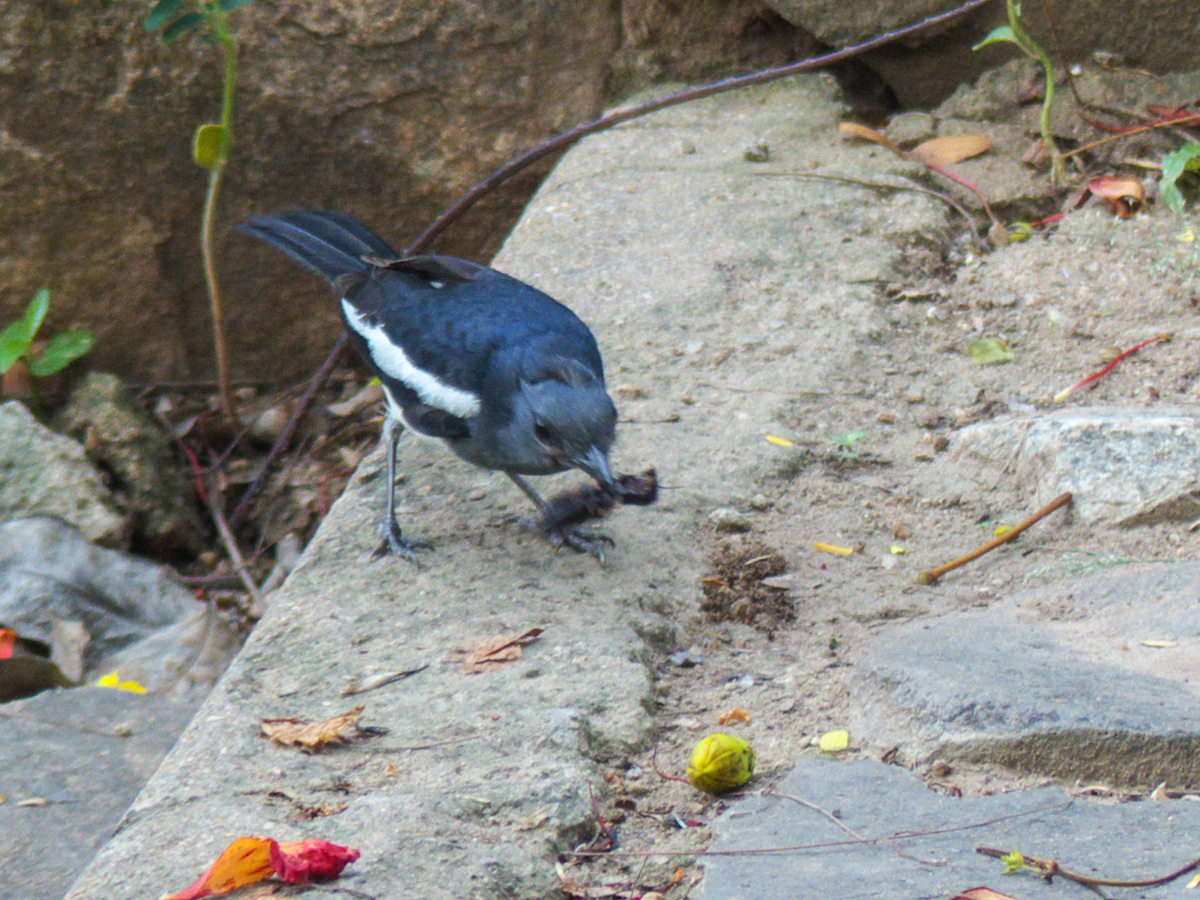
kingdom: Animalia
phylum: Chordata
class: Aves
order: Passeriformes
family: Muscicapidae
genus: Copsychus
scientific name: Copsychus saularis
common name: Oriental magpie-robin
